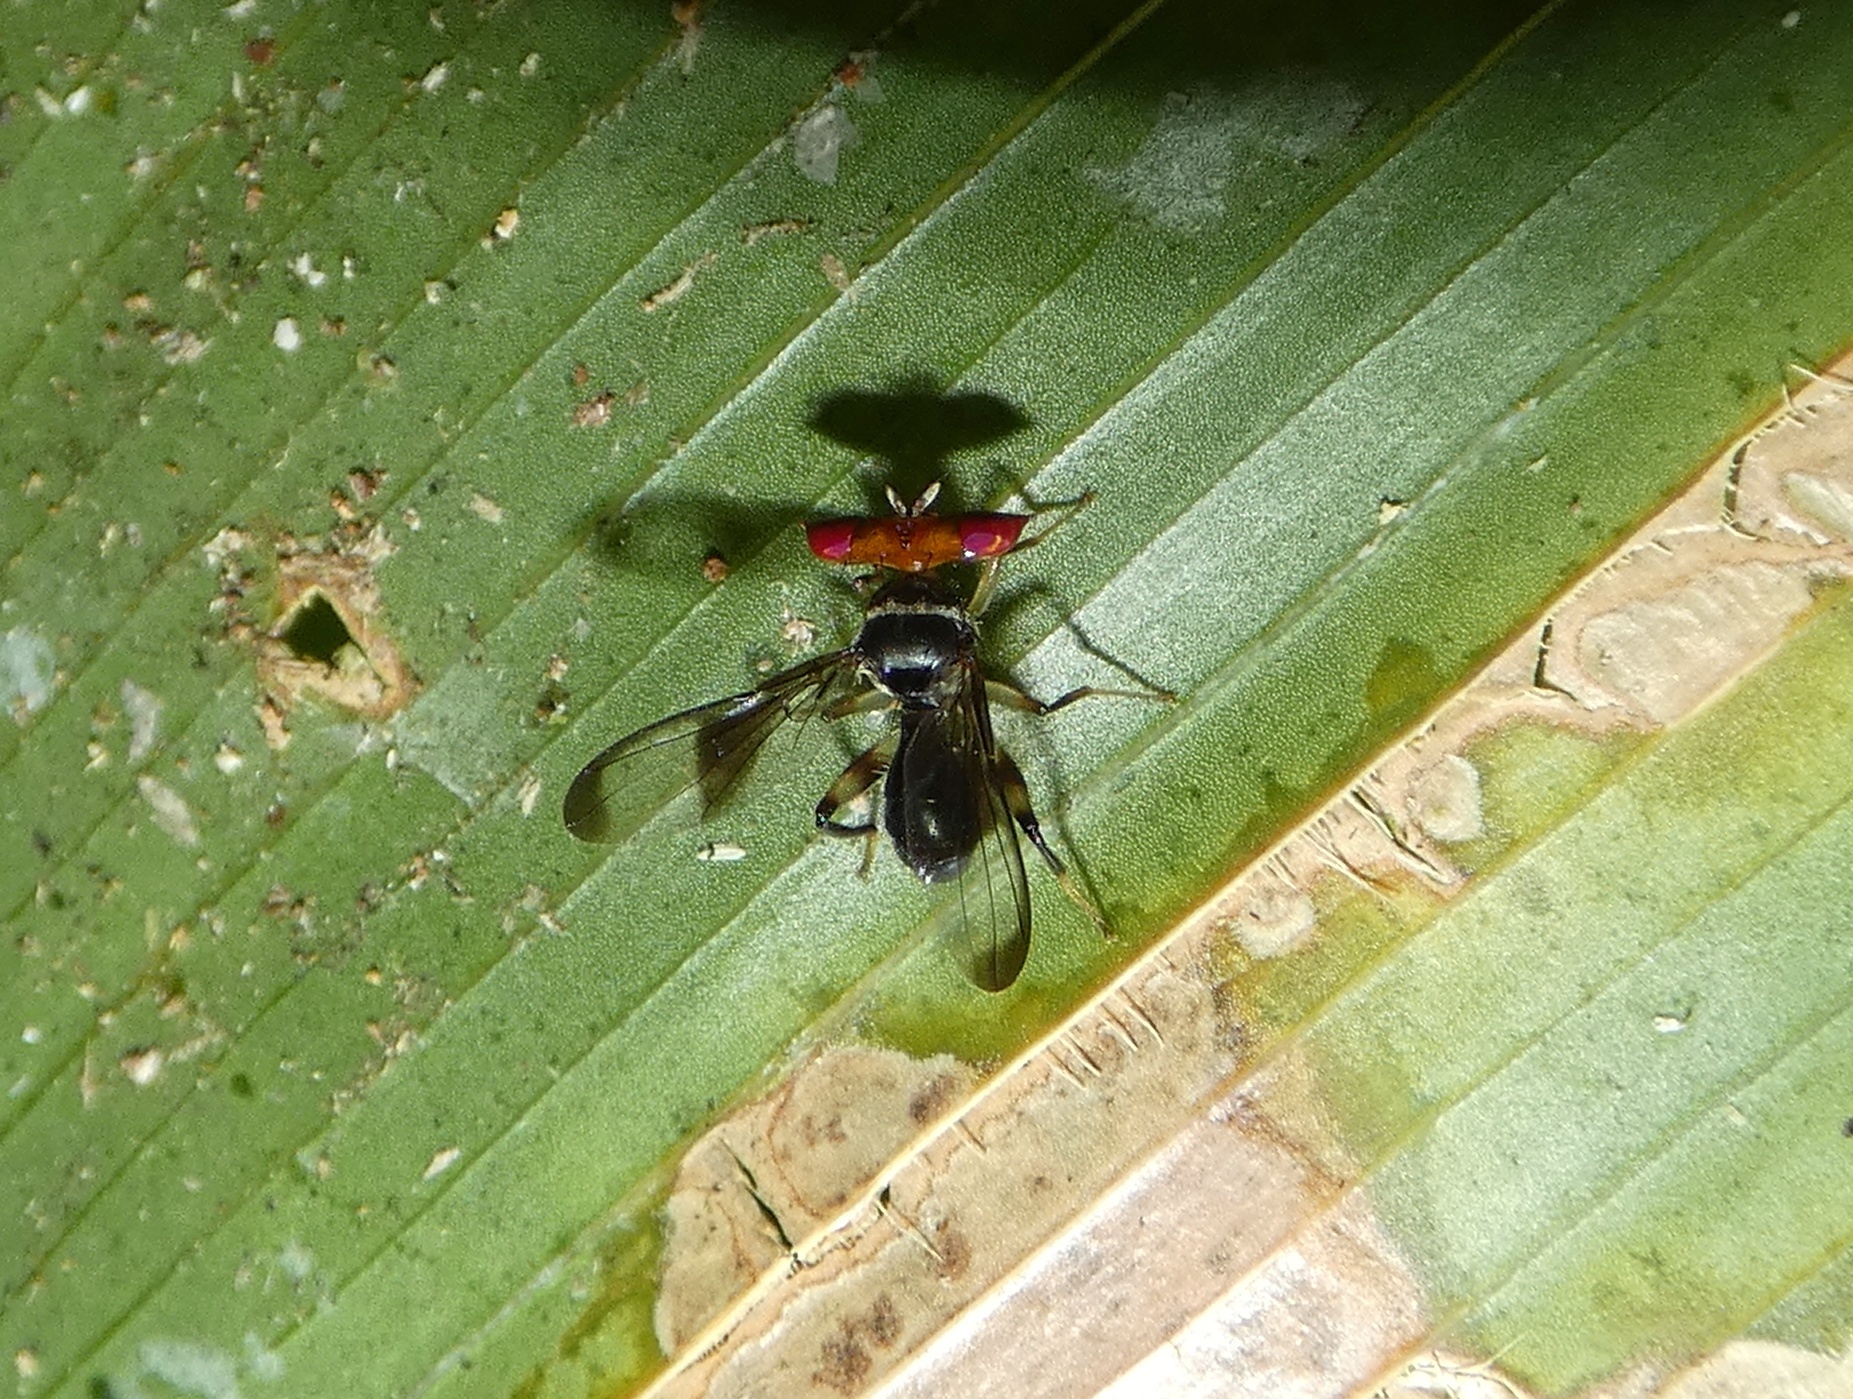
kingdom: Animalia
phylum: Arthropoda
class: Insecta
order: Diptera
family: Richardiidae
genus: Richardia
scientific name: Richardia
